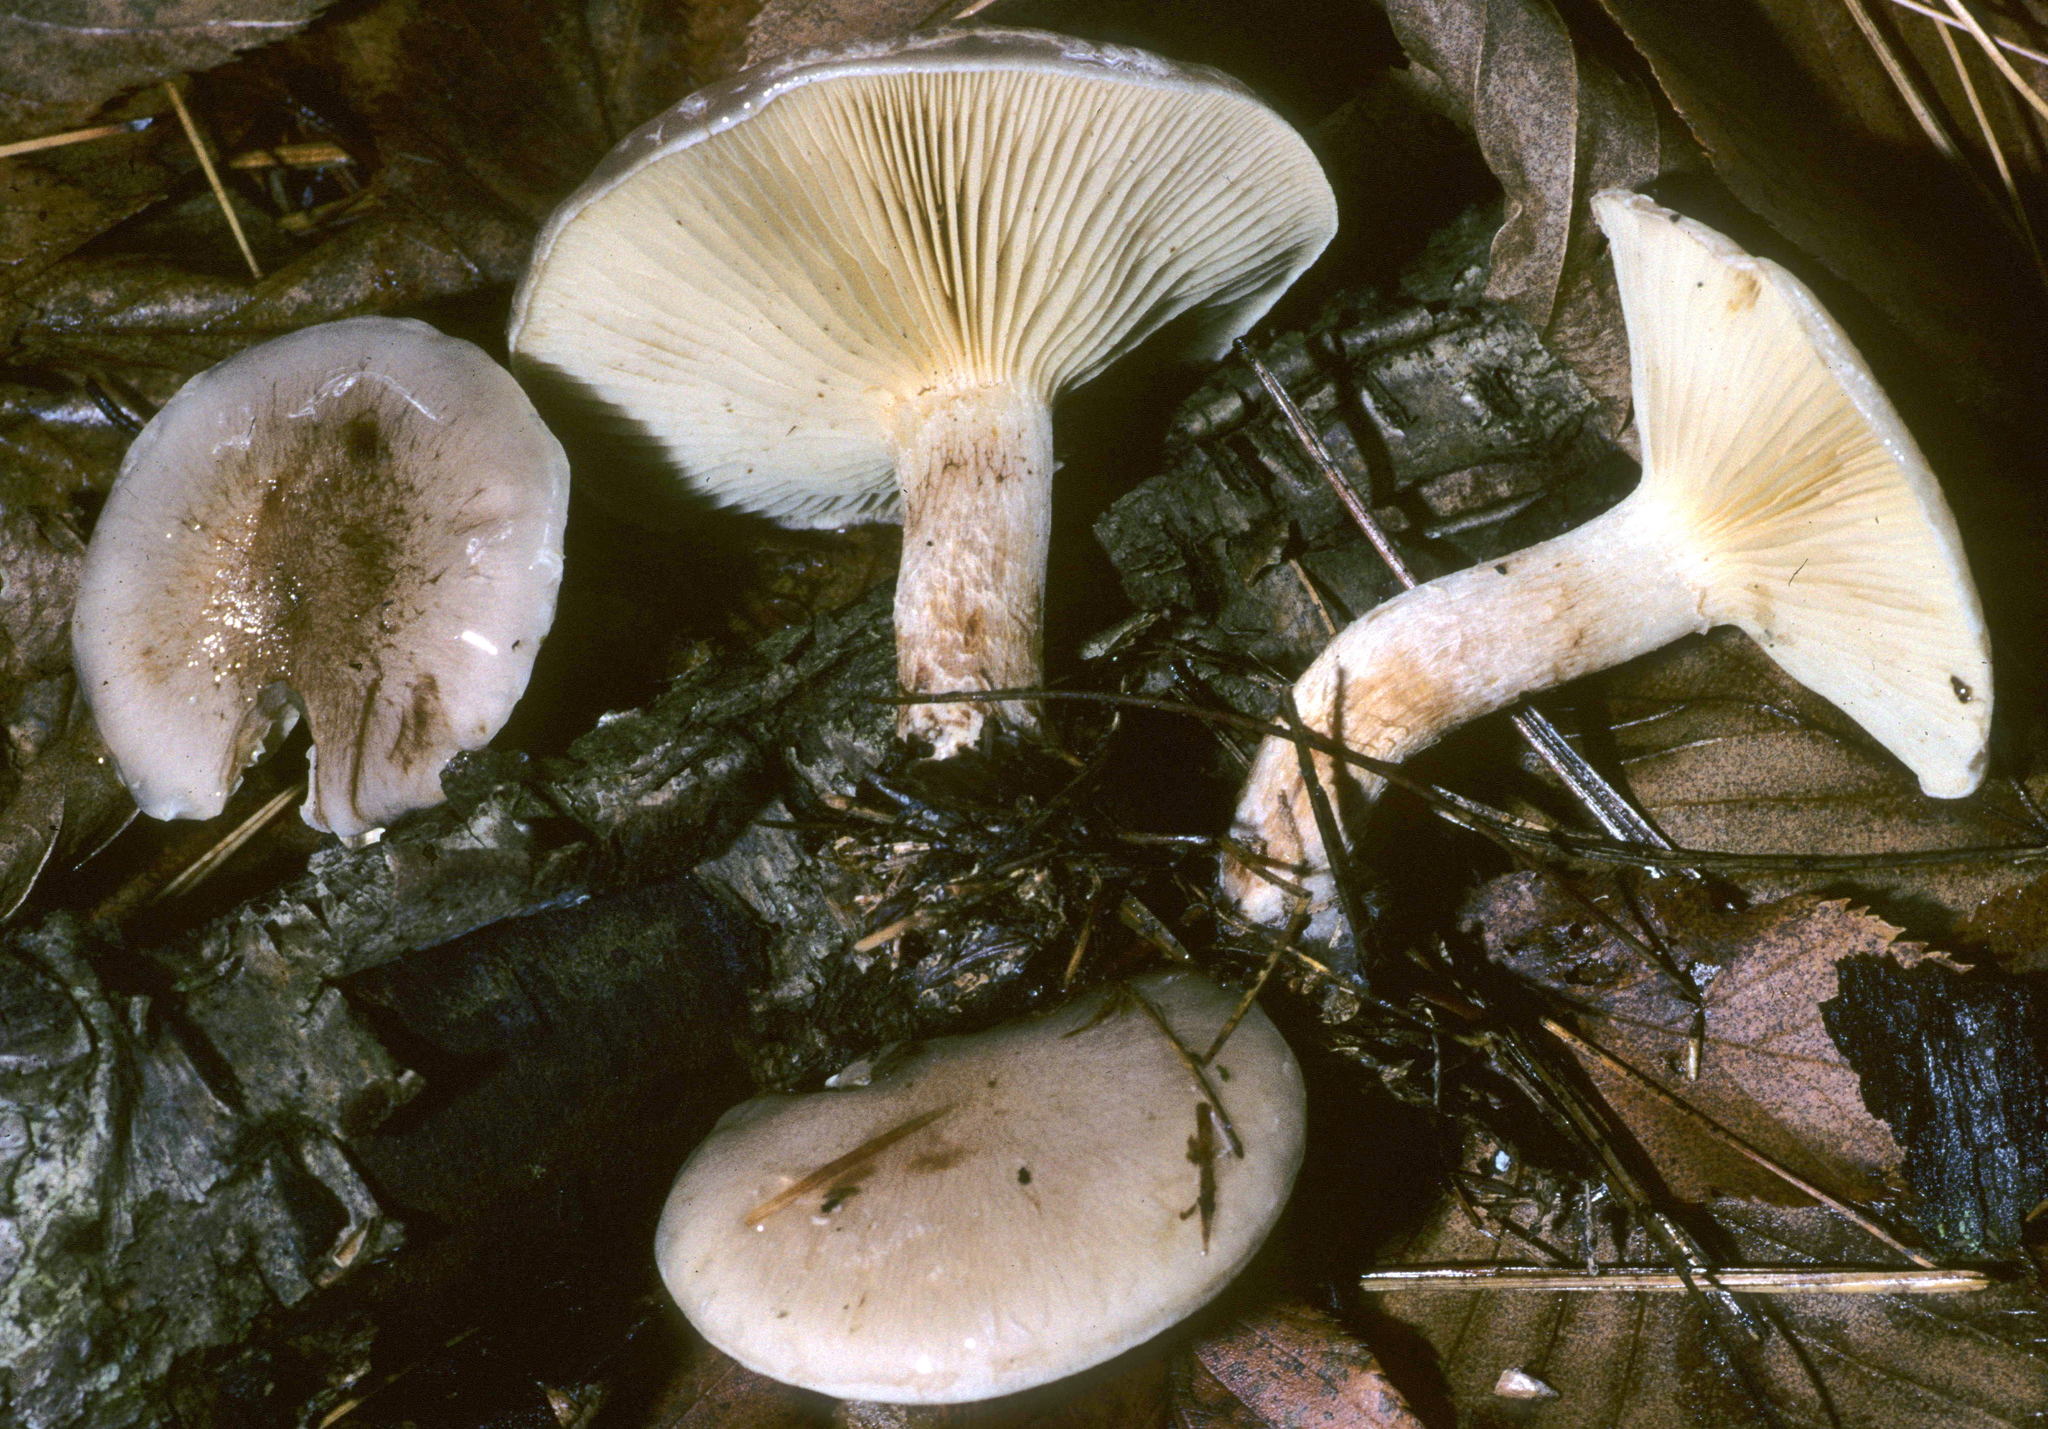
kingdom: Fungi
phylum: Basidiomycota
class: Agaricomycetes
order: Agaricales
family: Strophariaceae
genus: Pholiota
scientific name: Pholiota lenta
